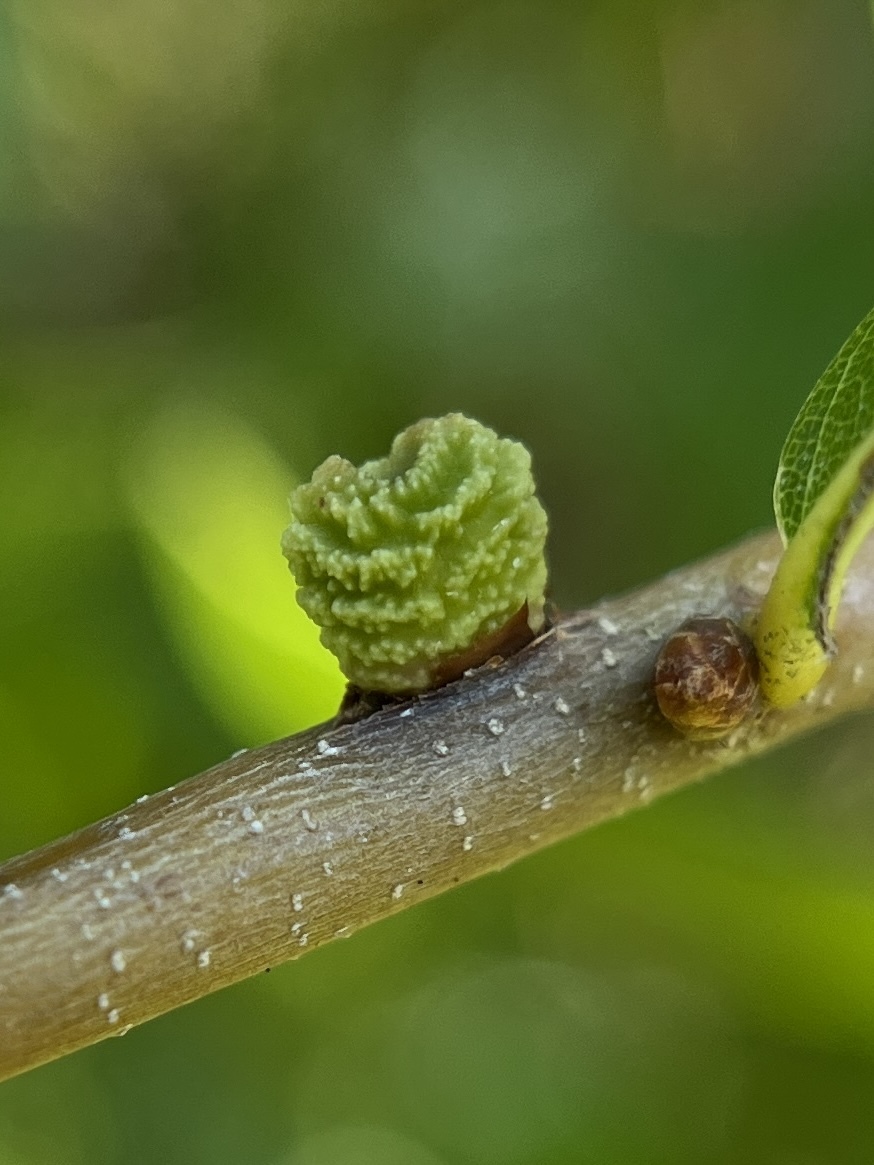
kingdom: Animalia
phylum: Arthropoda
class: Insecta
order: Hymenoptera
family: Cynipidae
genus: Kokkocynips
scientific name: Kokkocynips difficilis
